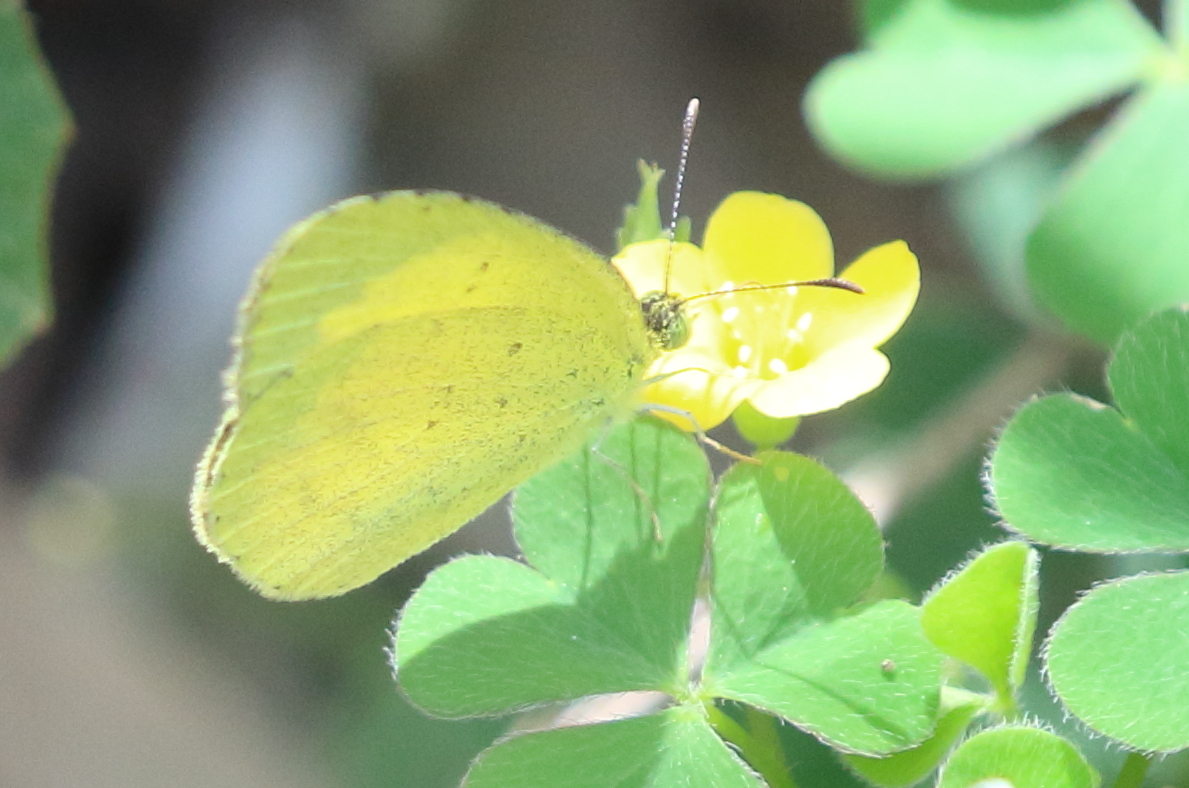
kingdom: Animalia
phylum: Arthropoda
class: Insecta
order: Lepidoptera
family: Pieridae
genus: Eurema
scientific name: Eurema brigitta
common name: Small grass yellow
